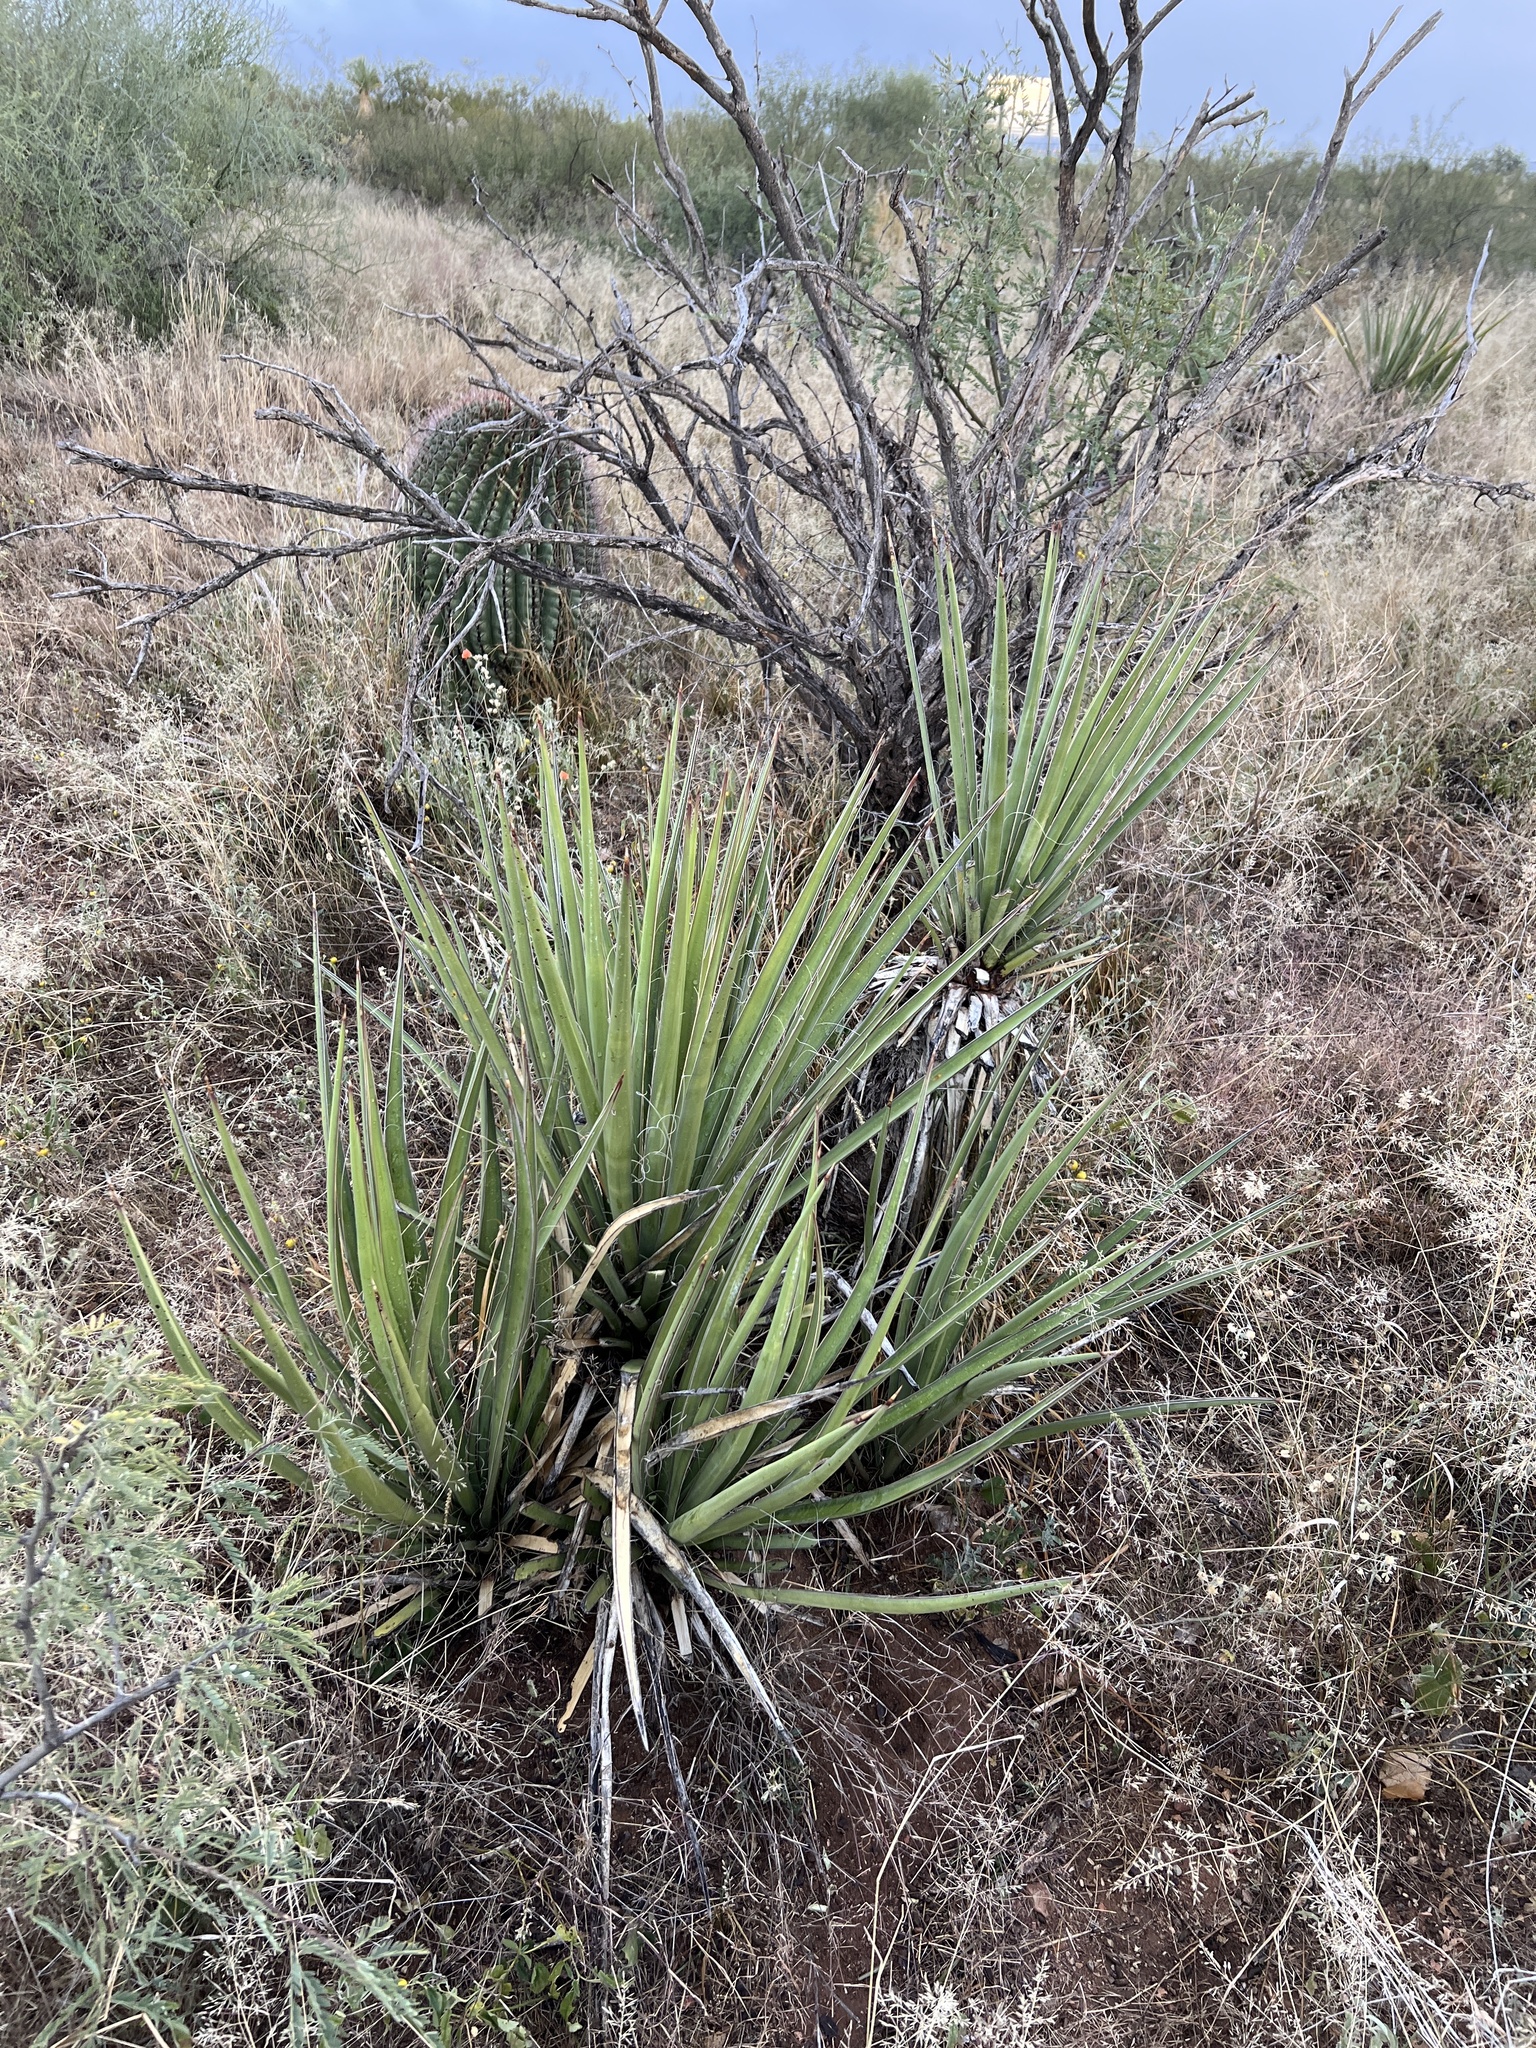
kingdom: Plantae
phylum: Tracheophyta
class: Liliopsida
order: Asparagales
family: Asparagaceae
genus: Yucca
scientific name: Yucca baccata
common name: Banana yucca
